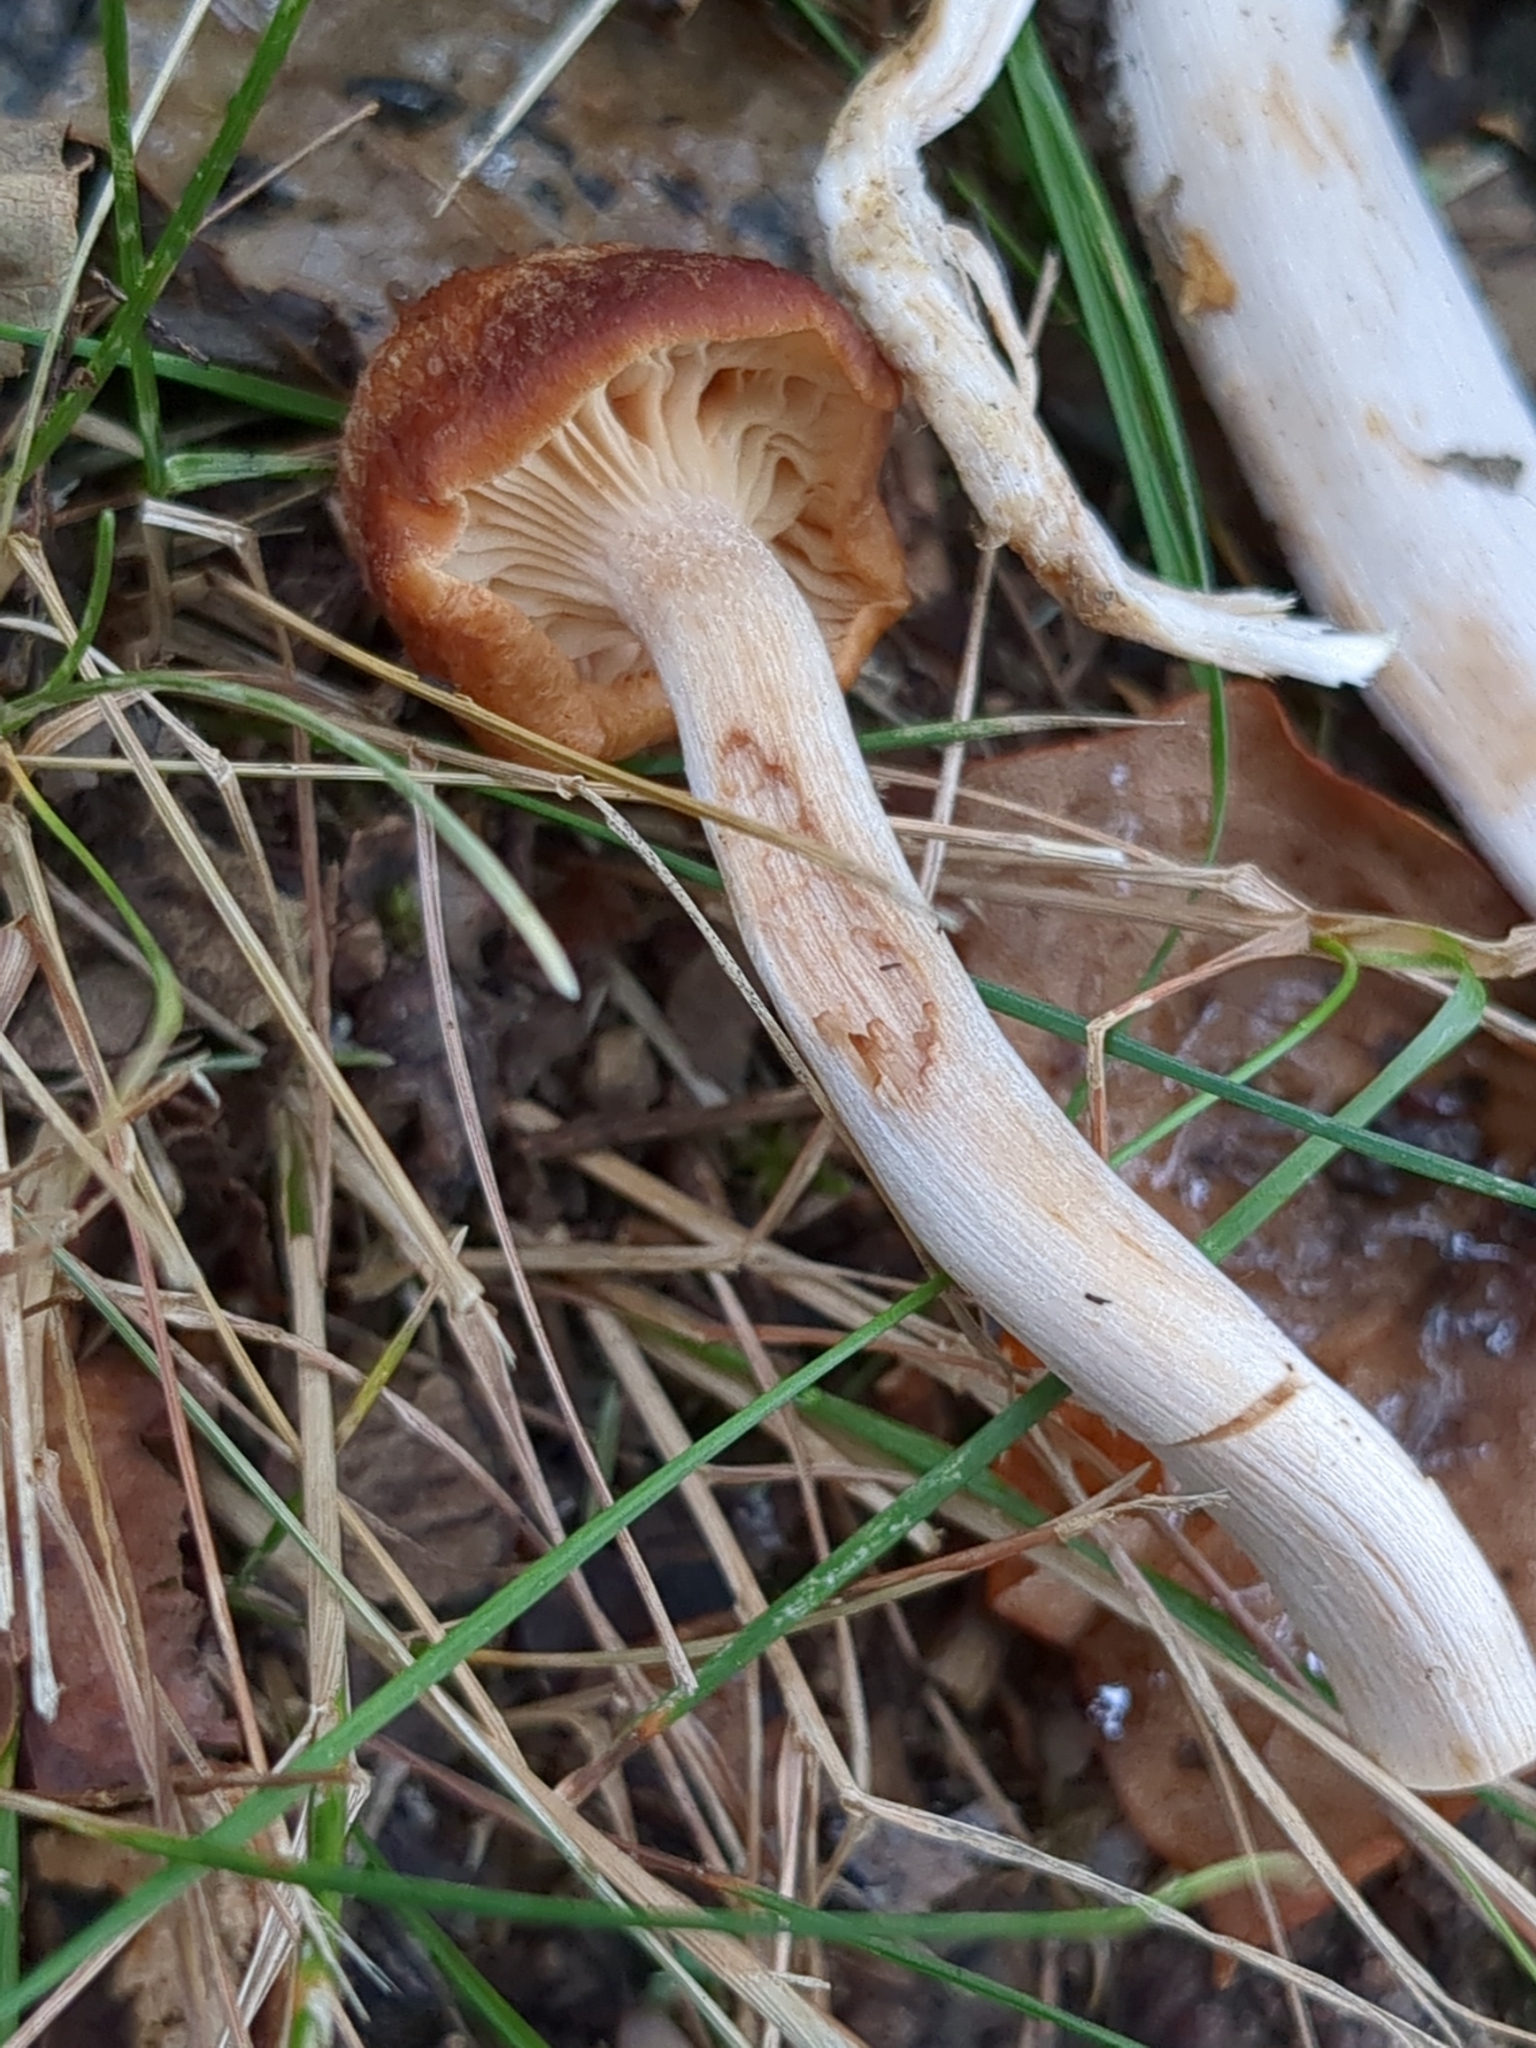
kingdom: Fungi
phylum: Basidiomycota
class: Agaricomycetes
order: Agaricales
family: Physalacriaceae
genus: Desarmillaria
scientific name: Desarmillaria caespitosa
